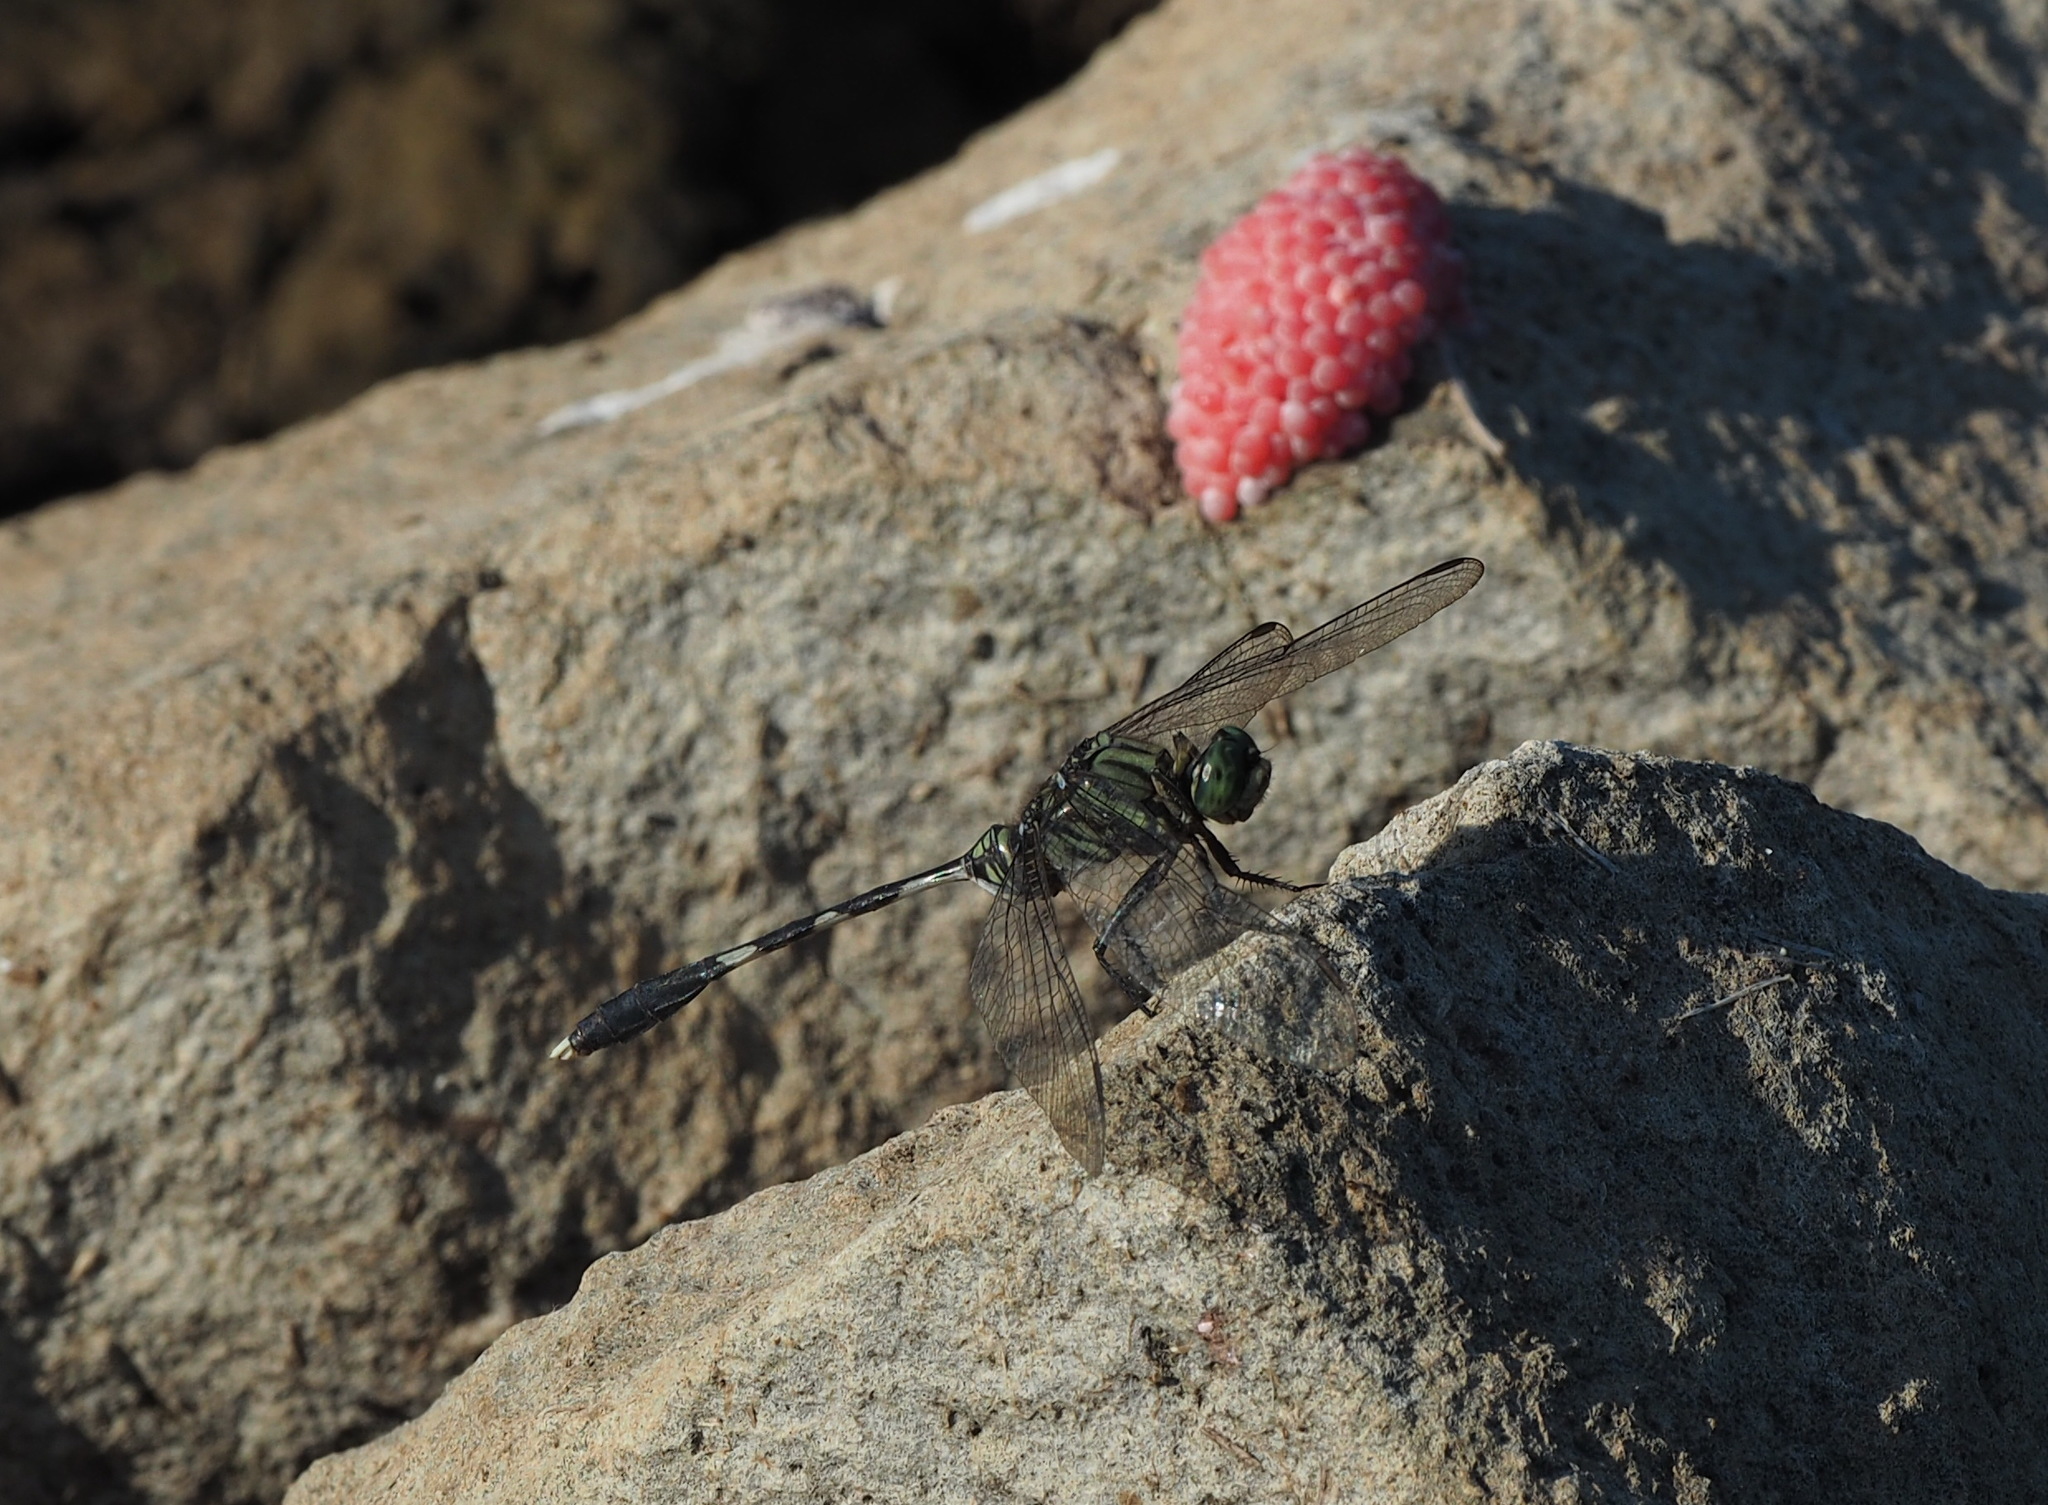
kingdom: Animalia
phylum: Arthropoda
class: Insecta
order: Odonata
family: Libellulidae
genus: Orthetrum
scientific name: Orthetrum sabina
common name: Slender skimmer
